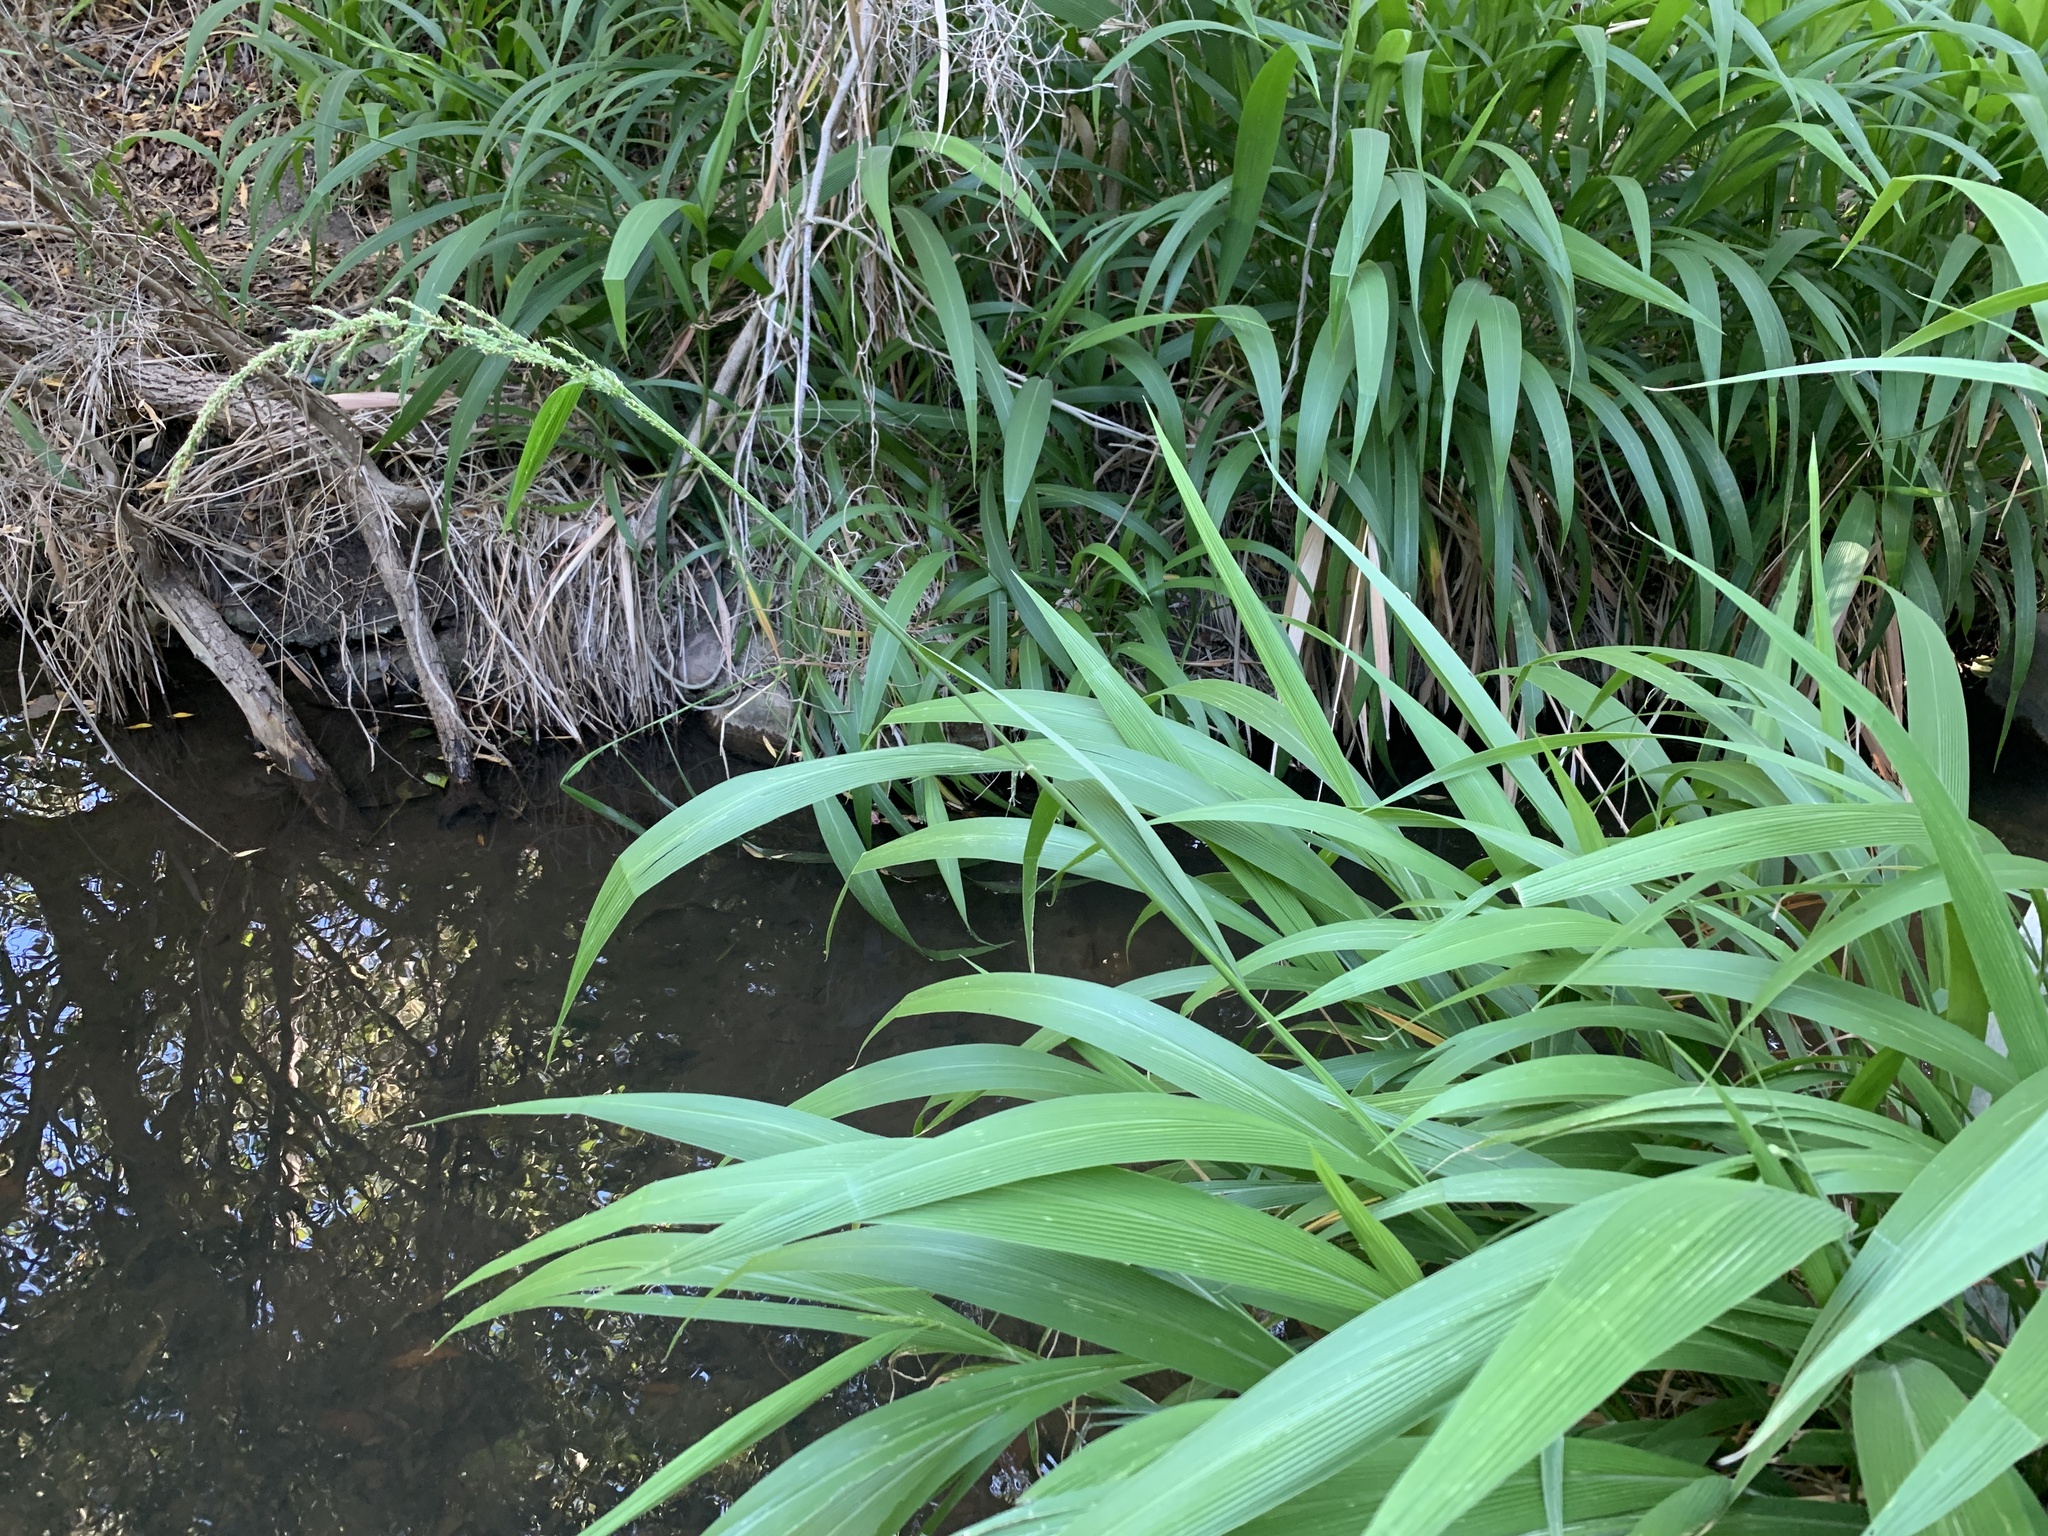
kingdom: Plantae
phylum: Tracheophyta
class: Liliopsida
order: Poales
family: Poaceae
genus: Setaria
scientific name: Setaria megaphylla
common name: Bigleaf bristlegrass
